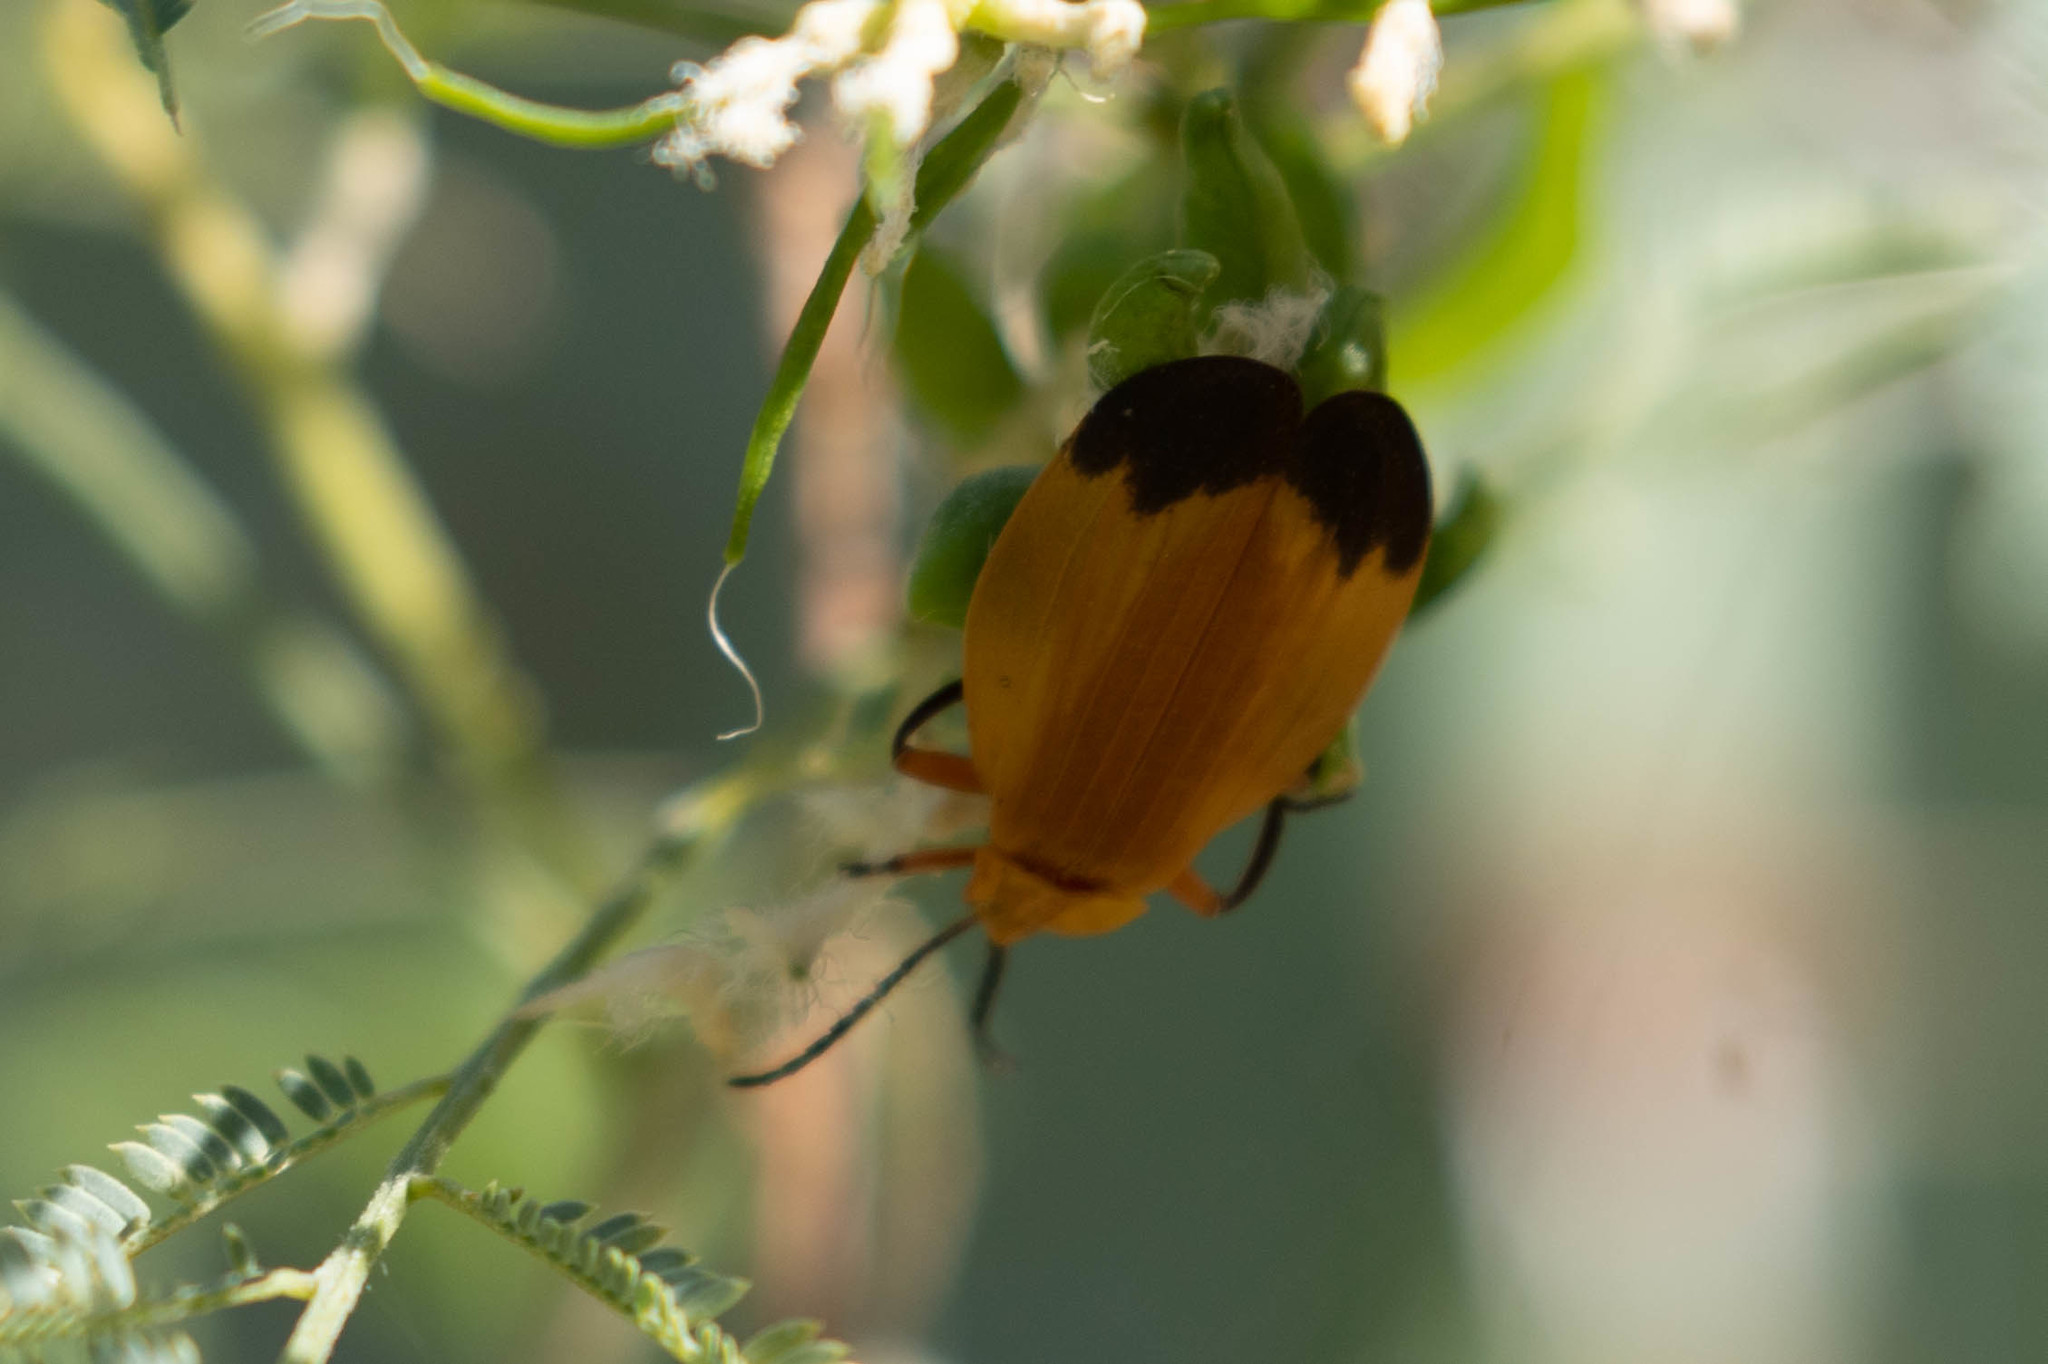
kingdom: Animalia
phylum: Arthropoda
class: Insecta
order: Coleoptera
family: Lycidae
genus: Lycus
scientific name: Lycus fernandezi
